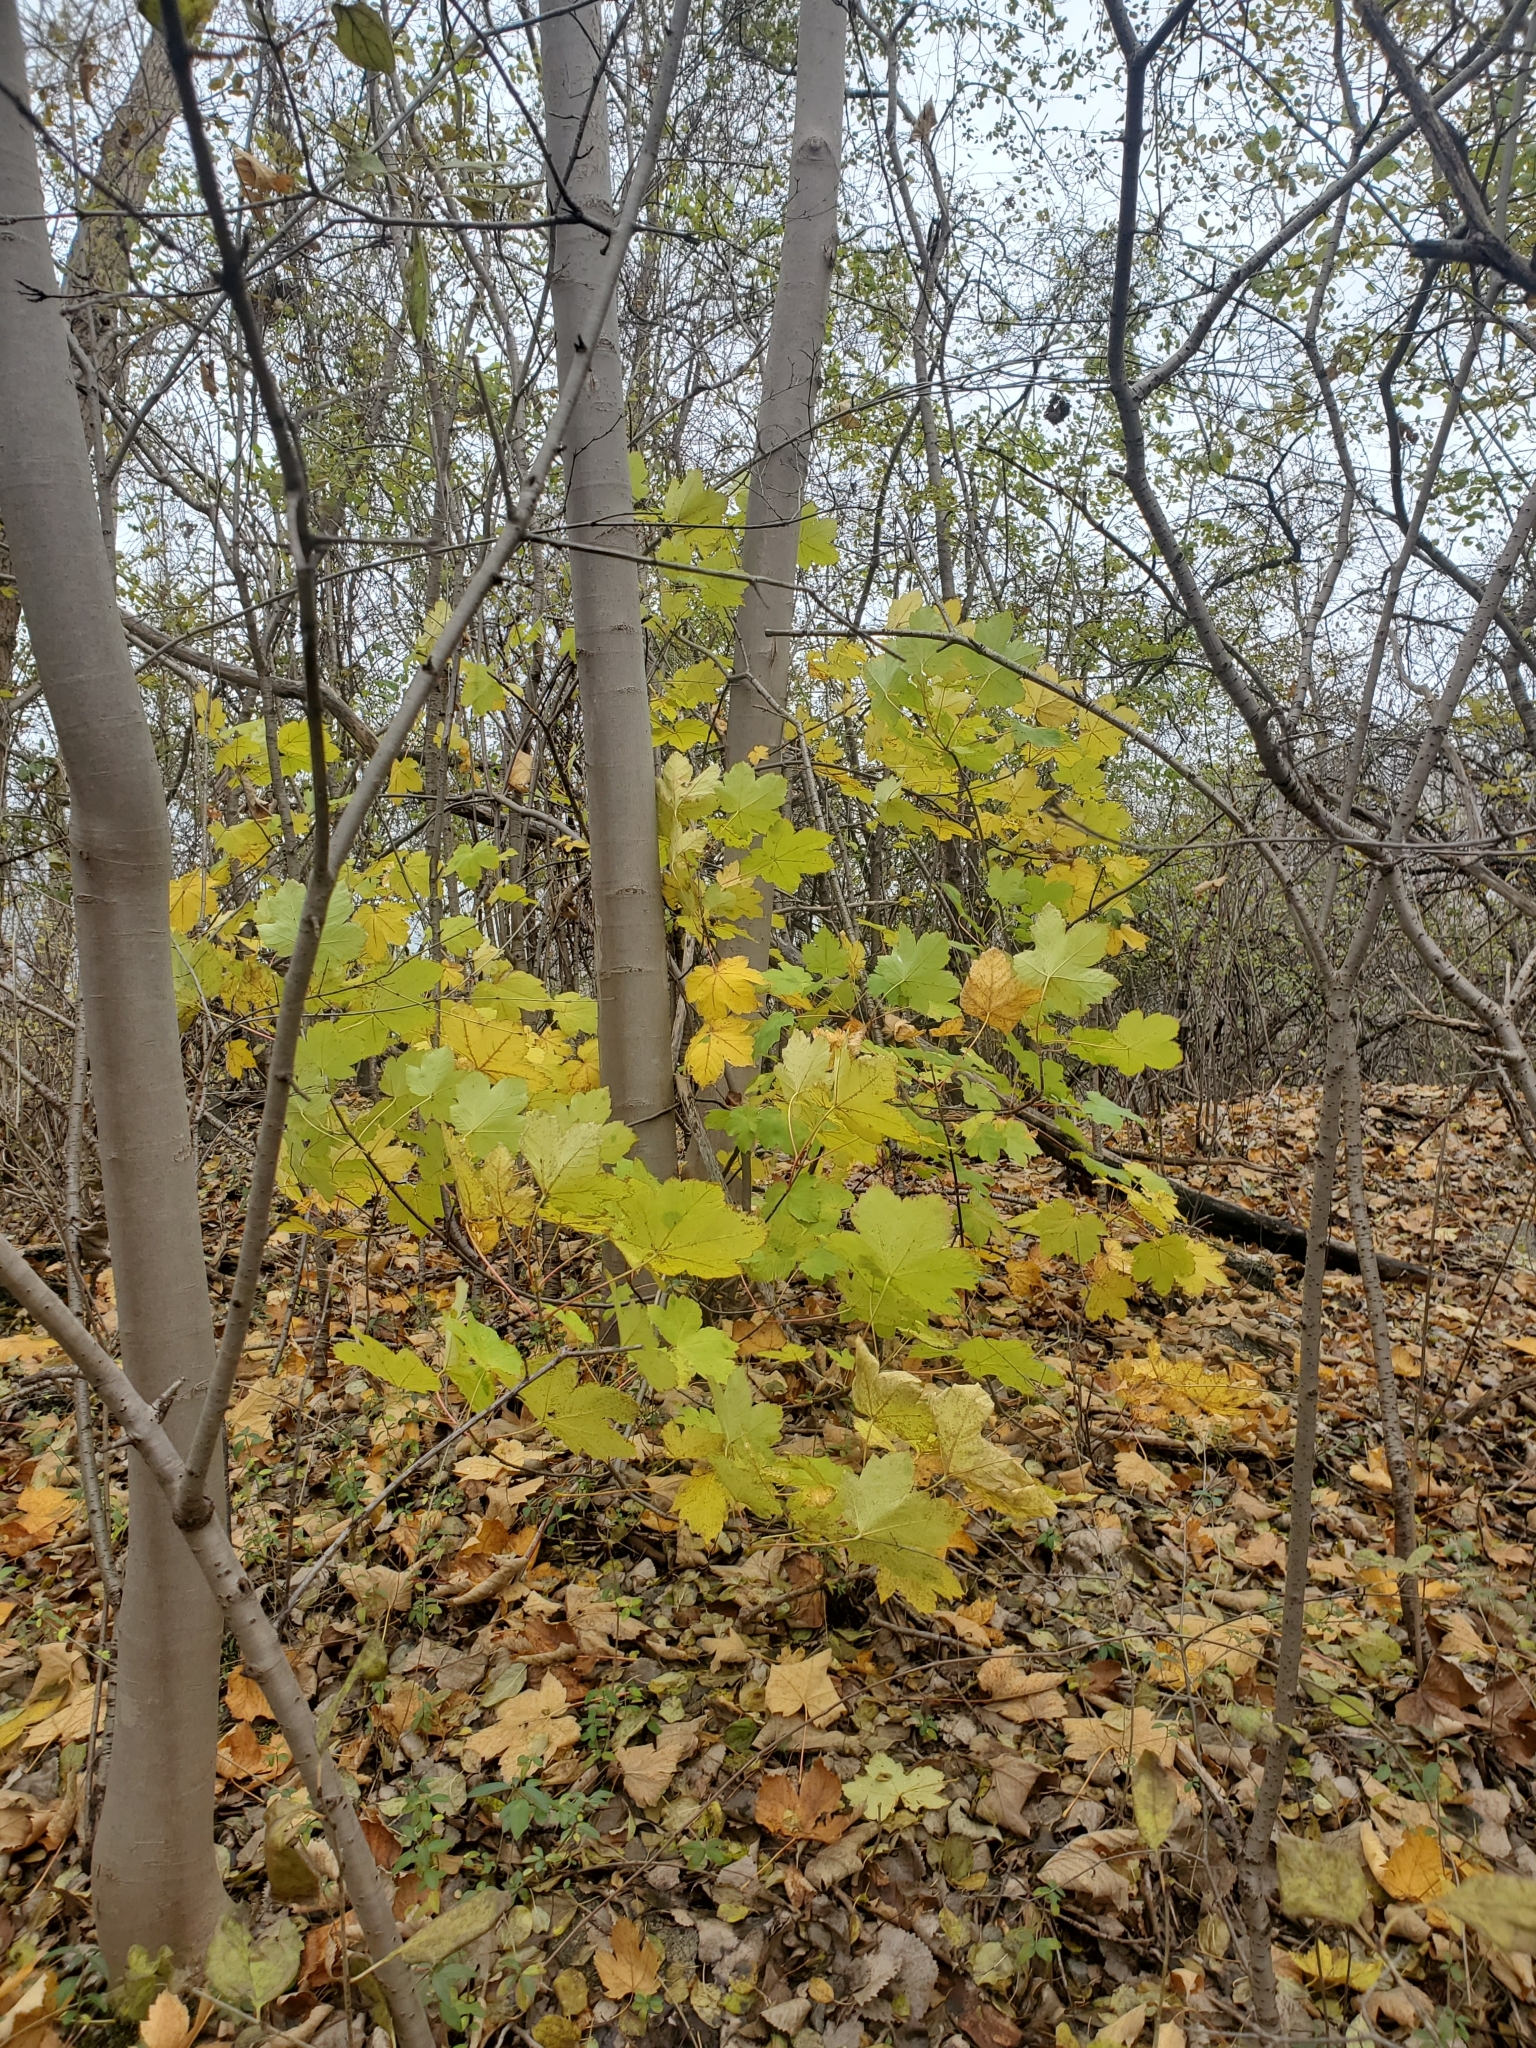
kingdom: Plantae
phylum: Tracheophyta
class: Magnoliopsida
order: Sapindales
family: Sapindaceae
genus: Acer
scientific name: Acer pseudoplatanus
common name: Sycamore
